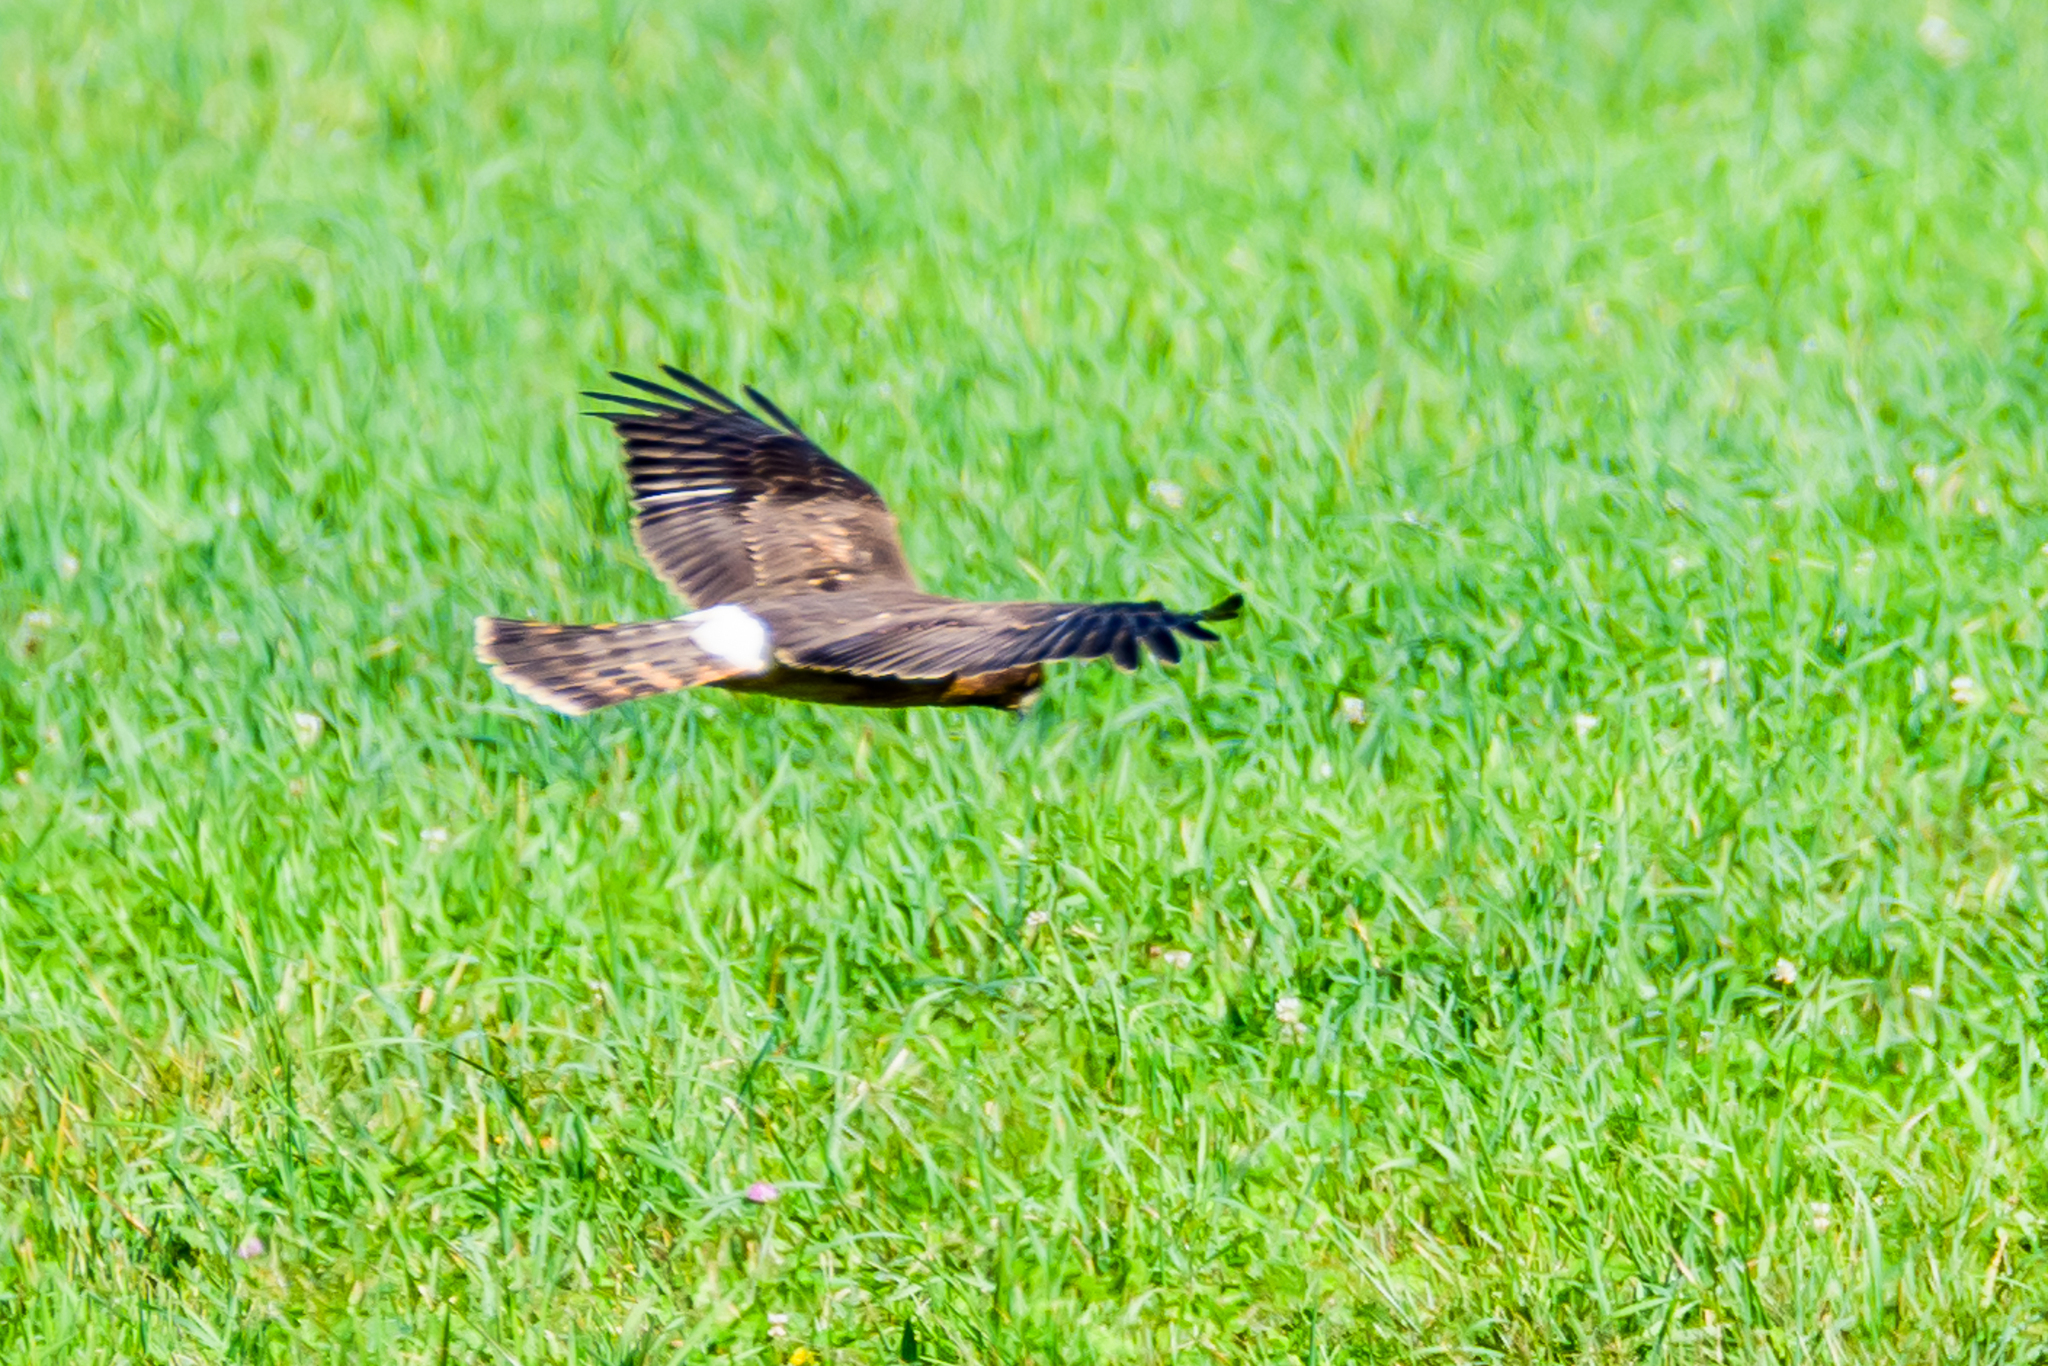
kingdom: Animalia
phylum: Chordata
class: Aves
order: Accipitriformes
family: Accipitridae
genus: Circus
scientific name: Circus cyaneus
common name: Hen harrier
